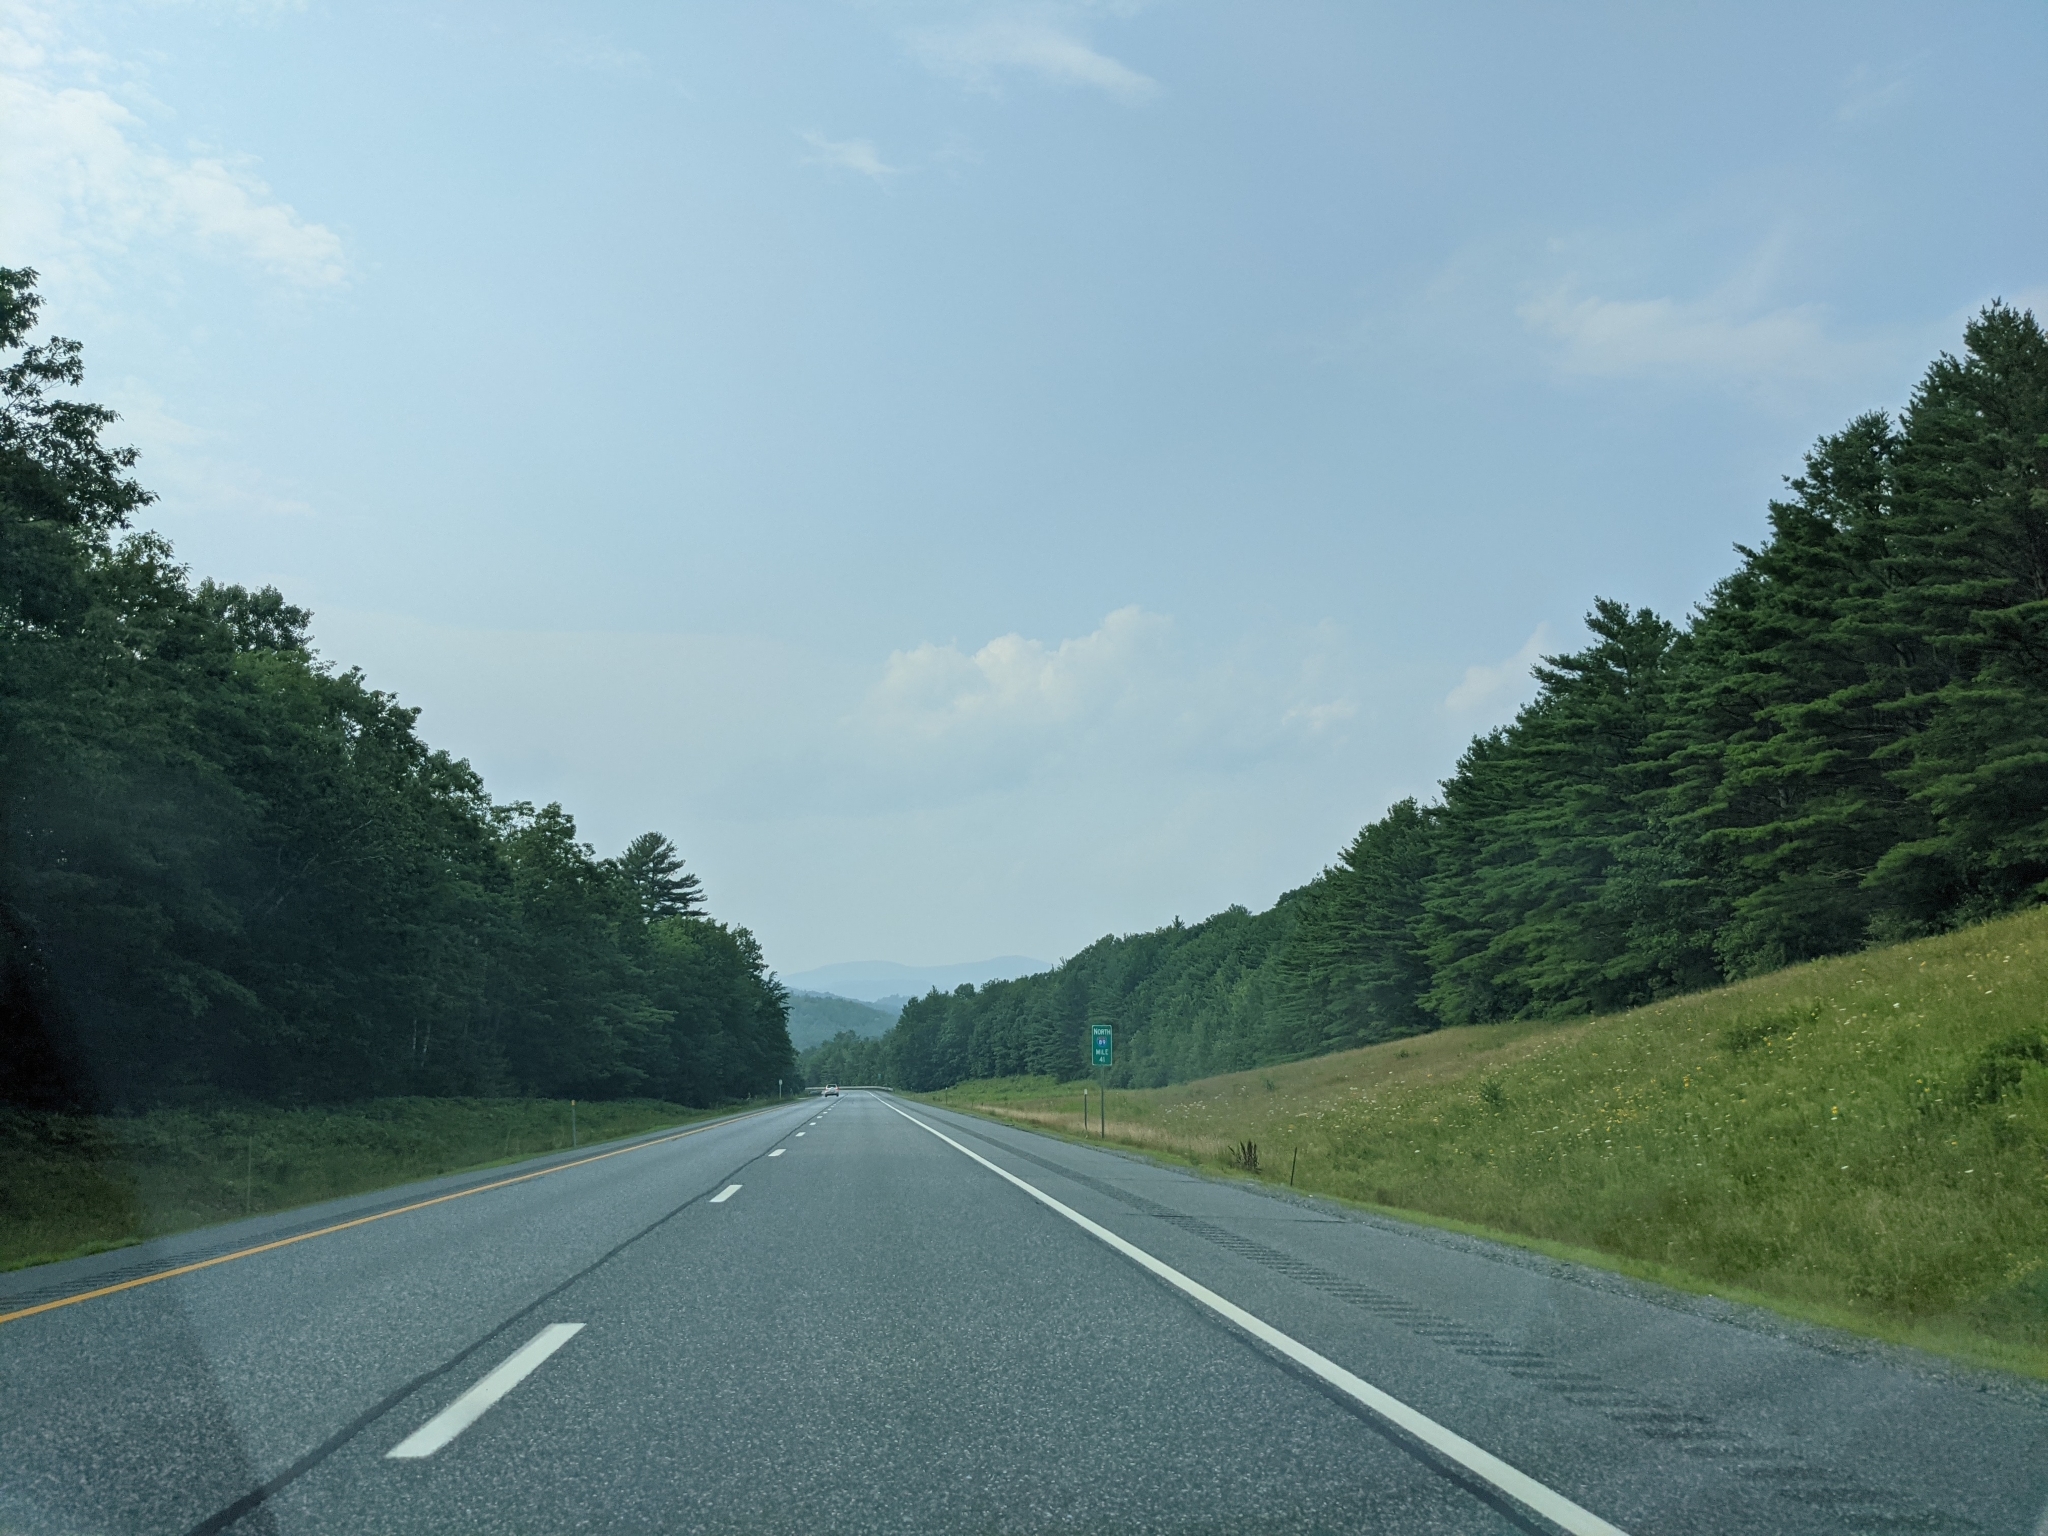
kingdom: Plantae
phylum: Tracheophyta
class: Pinopsida
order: Pinales
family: Pinaceae
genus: Pinus
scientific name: Pinus strobus
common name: Weymouth pine
